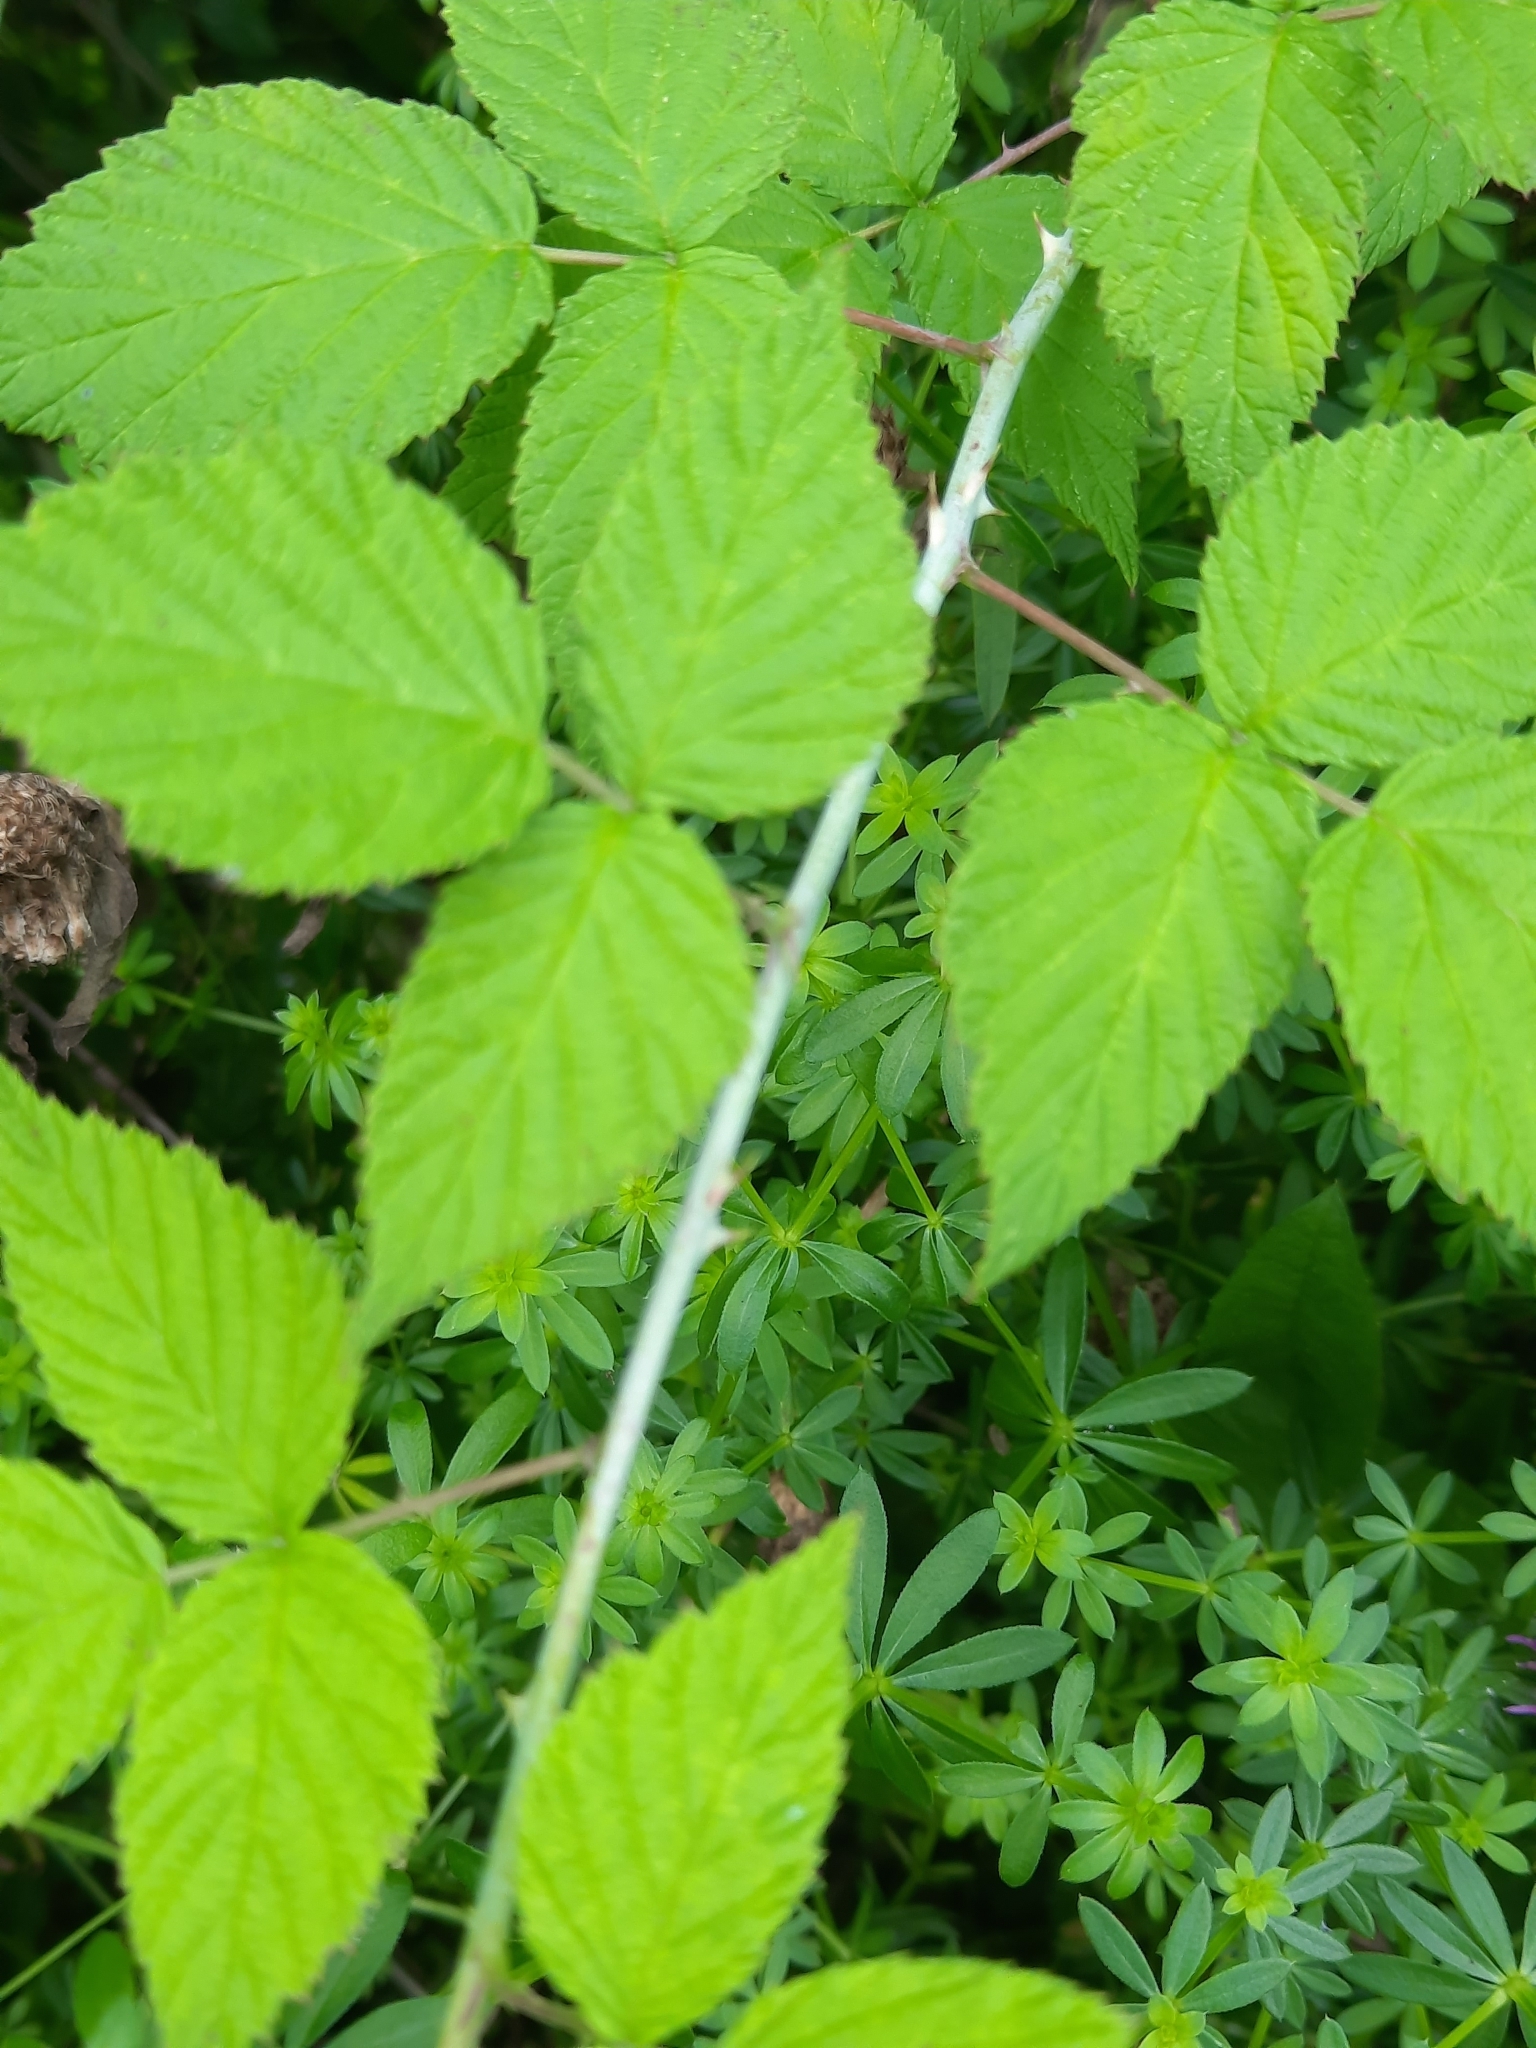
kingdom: Plantae
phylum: Tracheophyta
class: Magnoliopsida
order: Rosales
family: Rosaceae
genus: Rubus
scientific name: Rubus occidentalis
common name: Black raspberry
